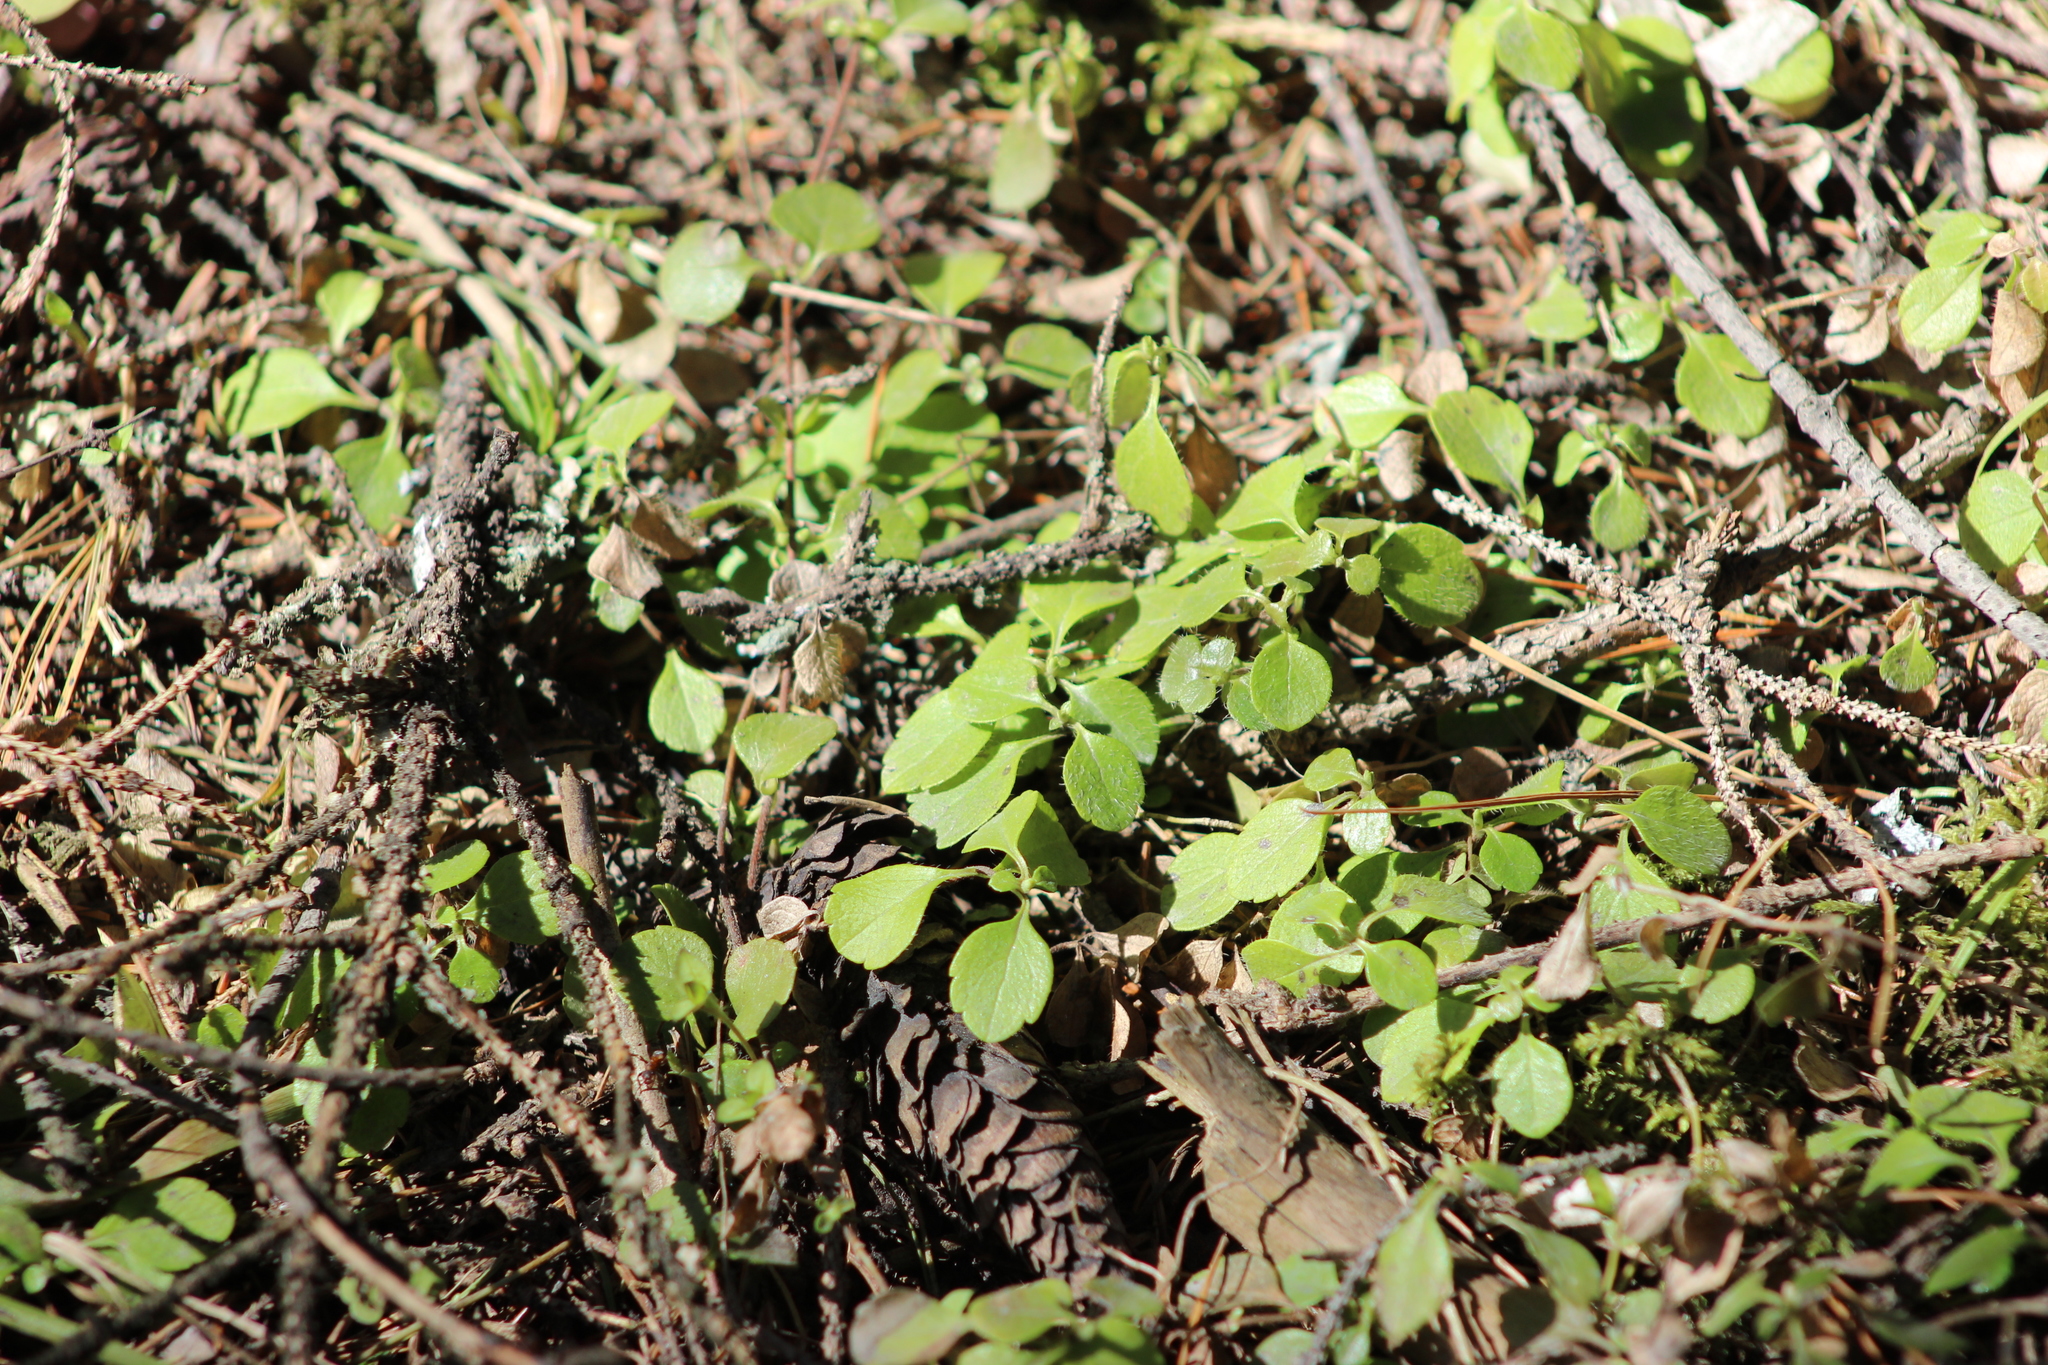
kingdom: Plantae
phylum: Tracheophyta
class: Magnoliopsida
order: Dipsacales
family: Caprifoliaceae
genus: Linnaea
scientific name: Linnaea borealis
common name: Twinflower
